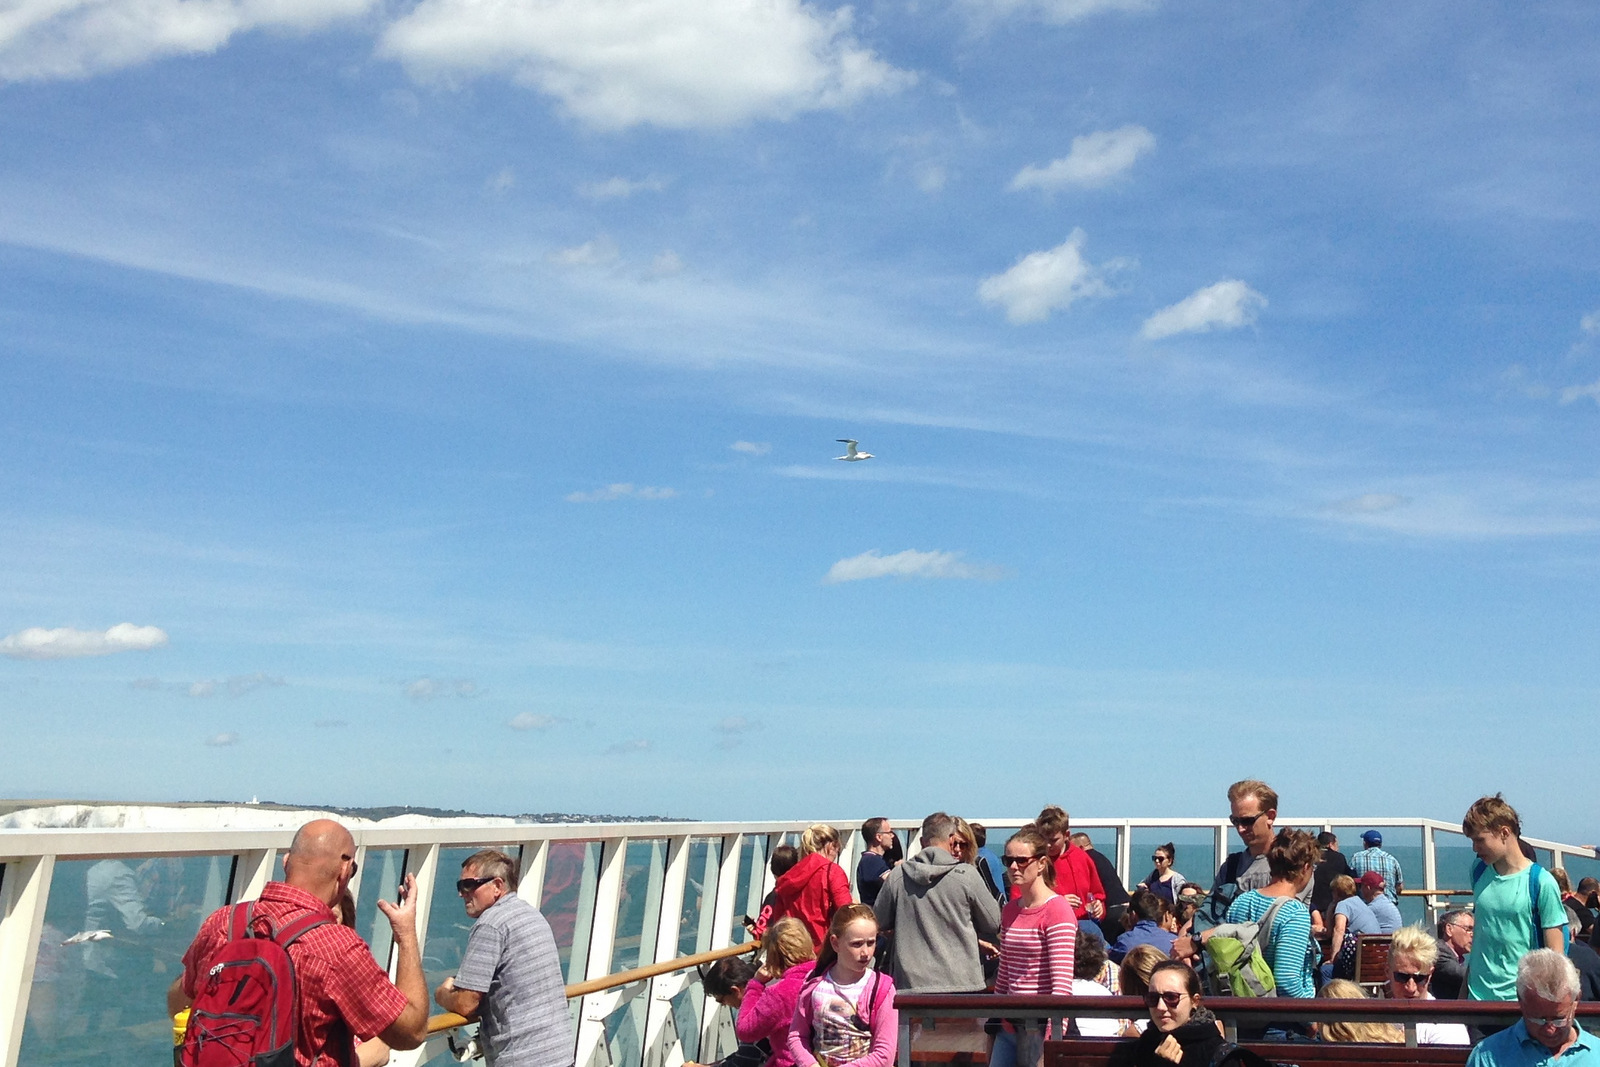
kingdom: Animalia
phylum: Chordata
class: Aves
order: Suliformes
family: Sulidae
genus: Morus
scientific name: Morus bassanus
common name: Northern gannet
